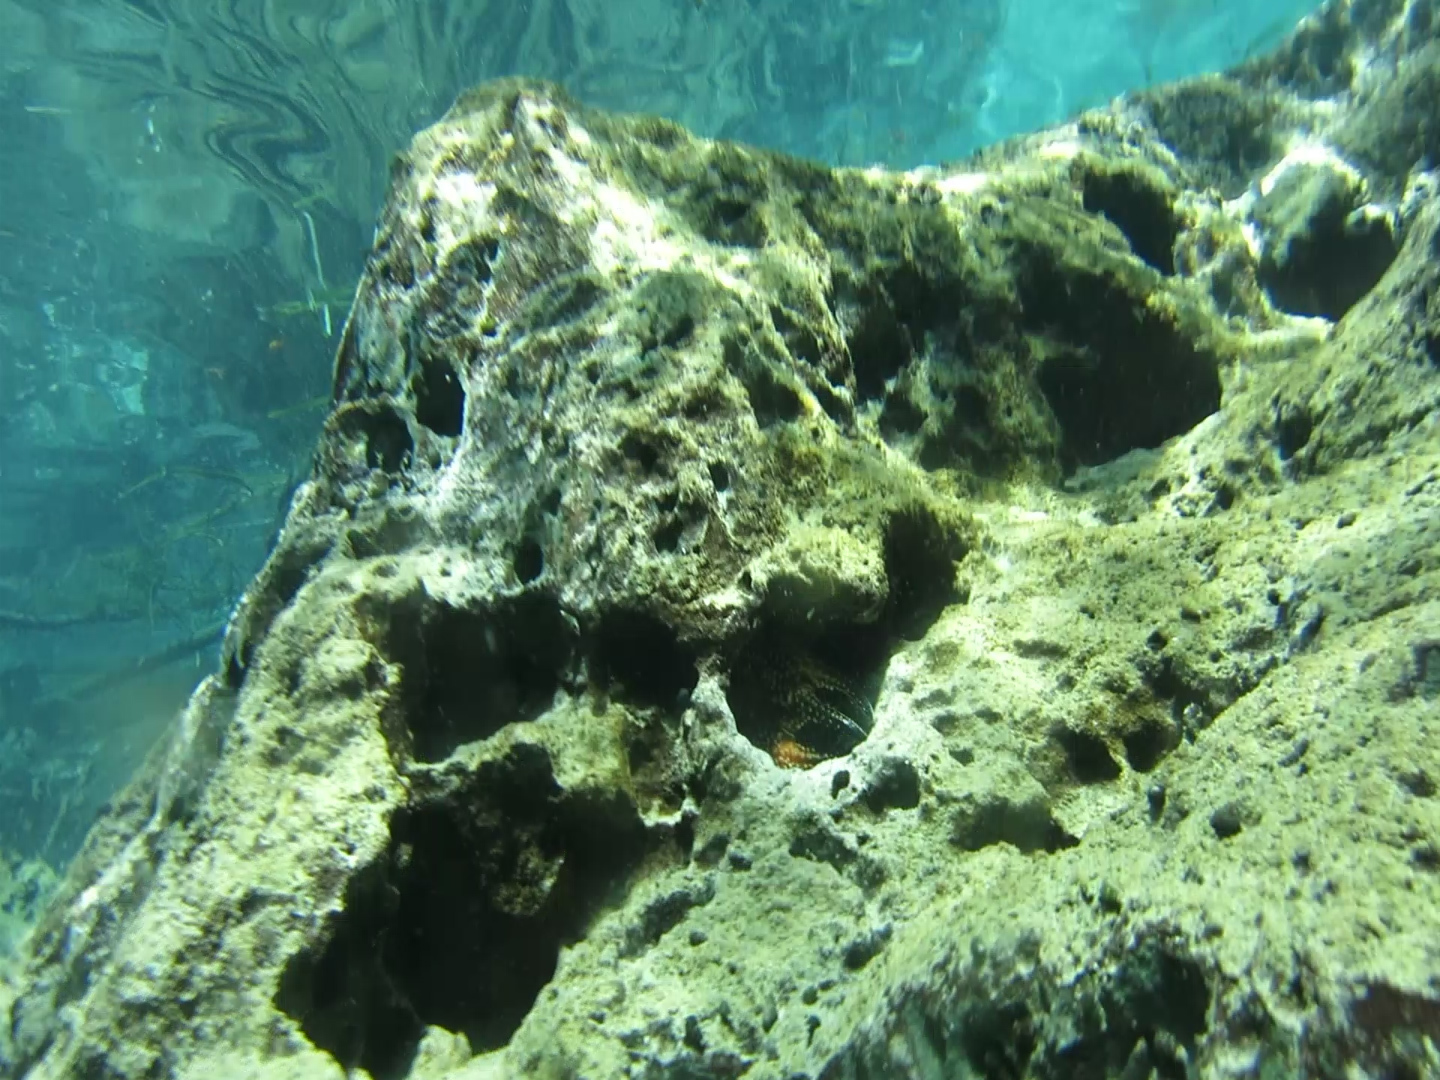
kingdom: Animalia
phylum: Arthropoda
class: Malacostraca
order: Decapoda
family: Cambaridae
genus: Procambarus
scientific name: Procambarus spiculifer
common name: White tubercled crayfish
